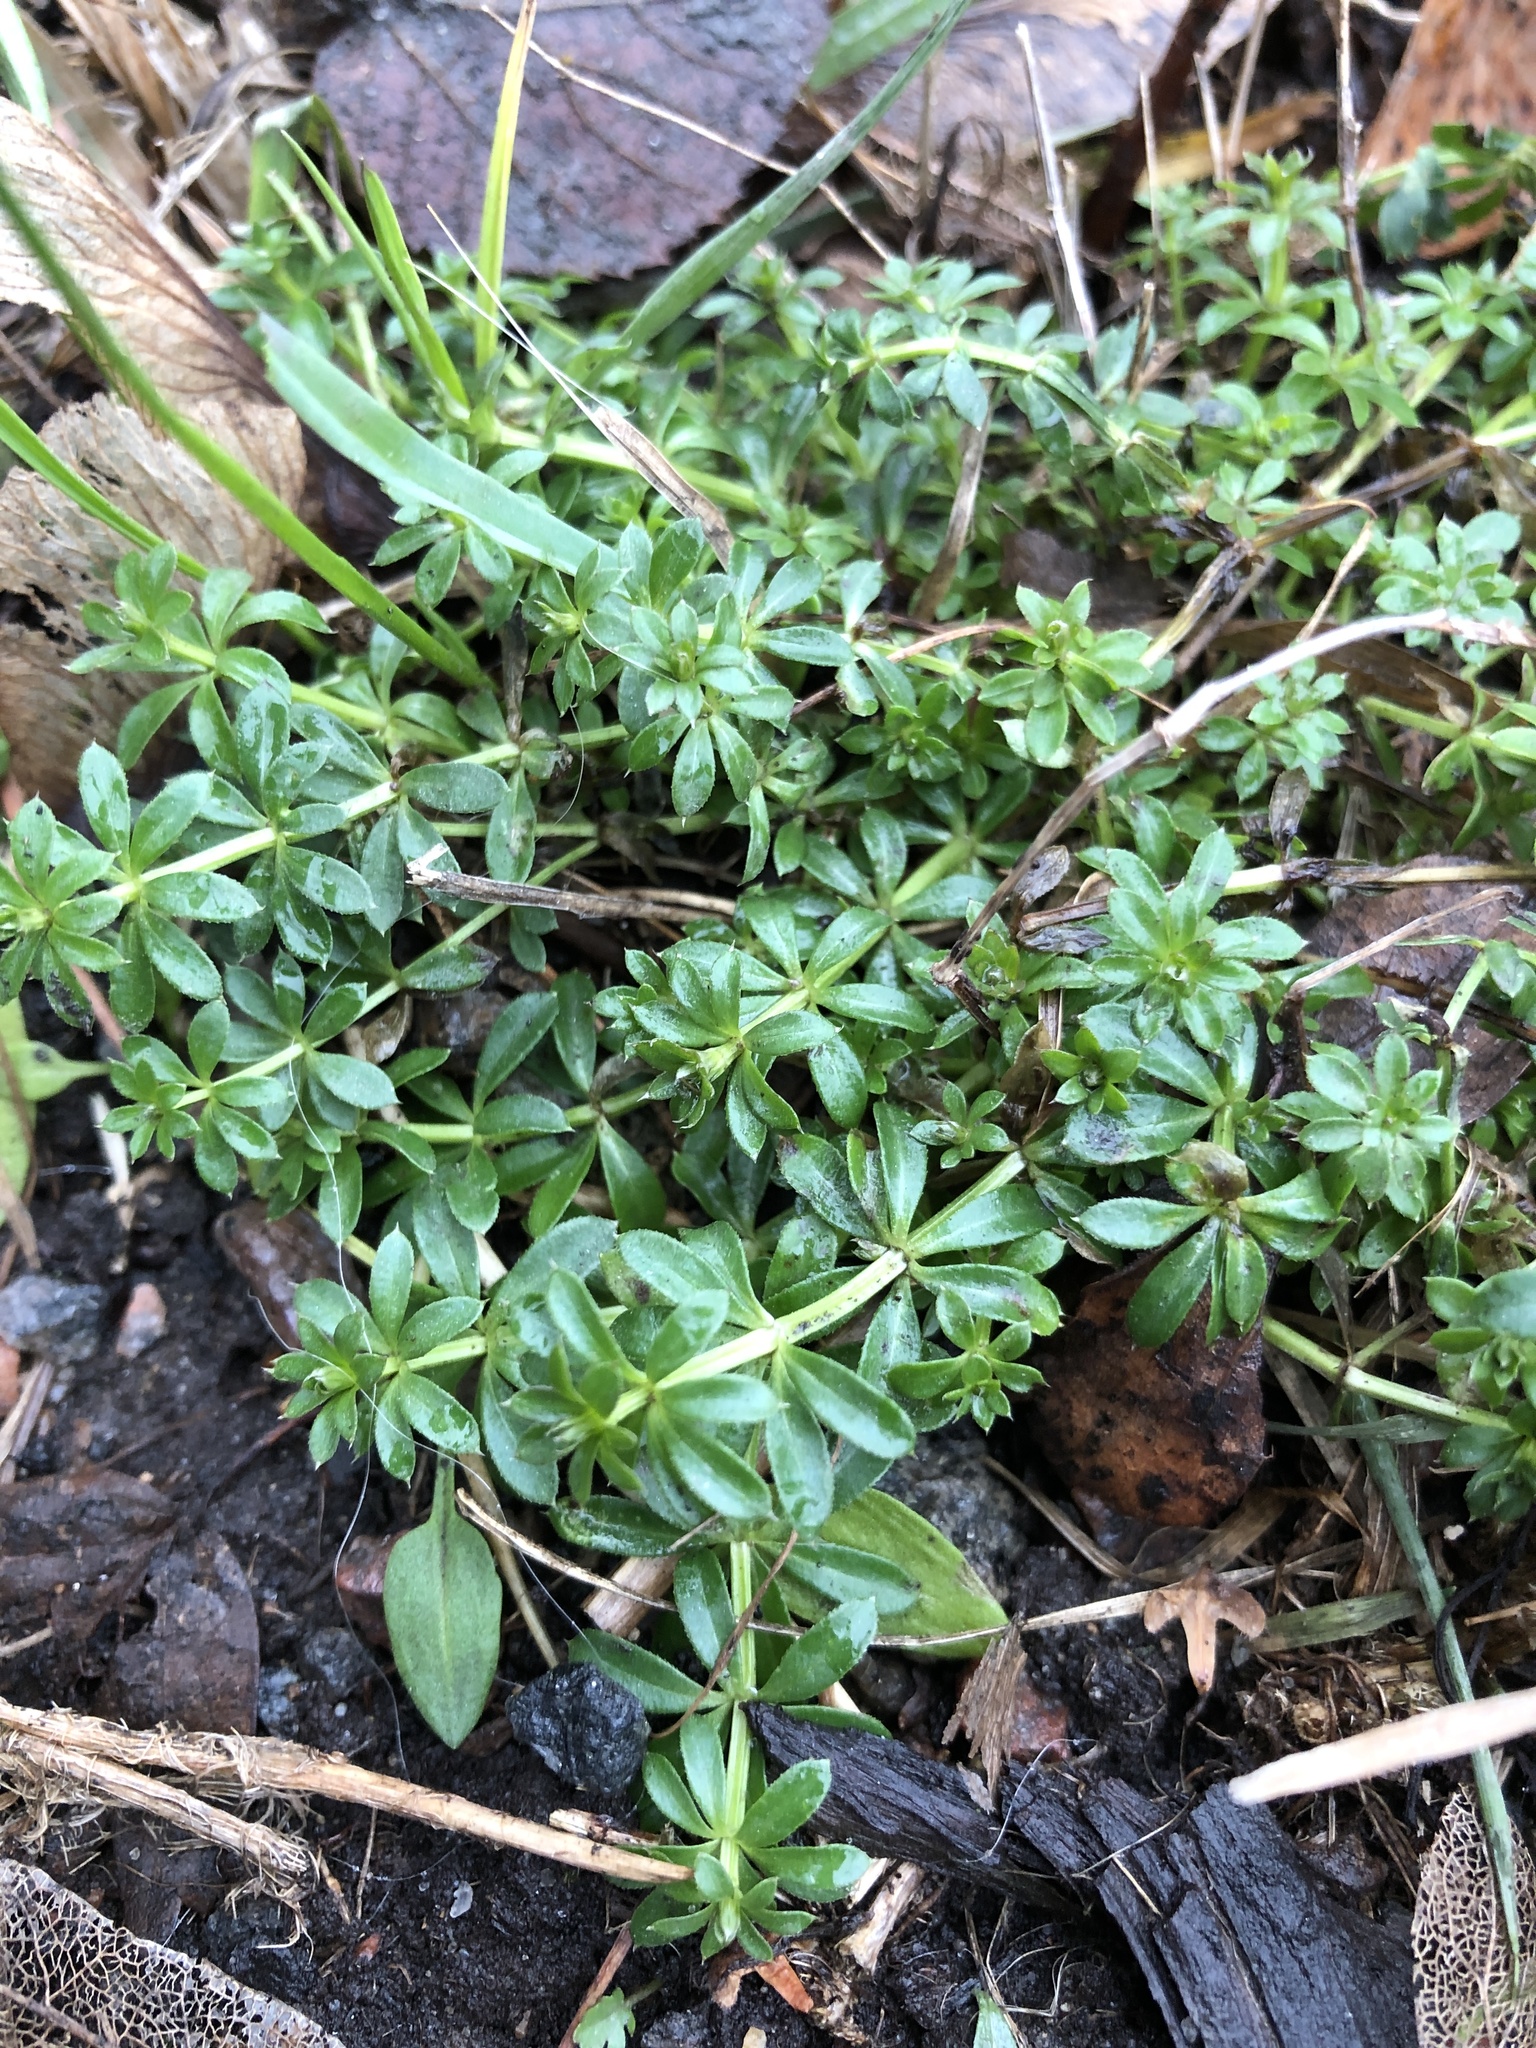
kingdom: Plantae
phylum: Tracheophyta
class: Magnoliopsida
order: Gentianales
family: Rubiaceae
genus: Galium
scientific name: Galium mollugo
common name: Hedge bedstraw
